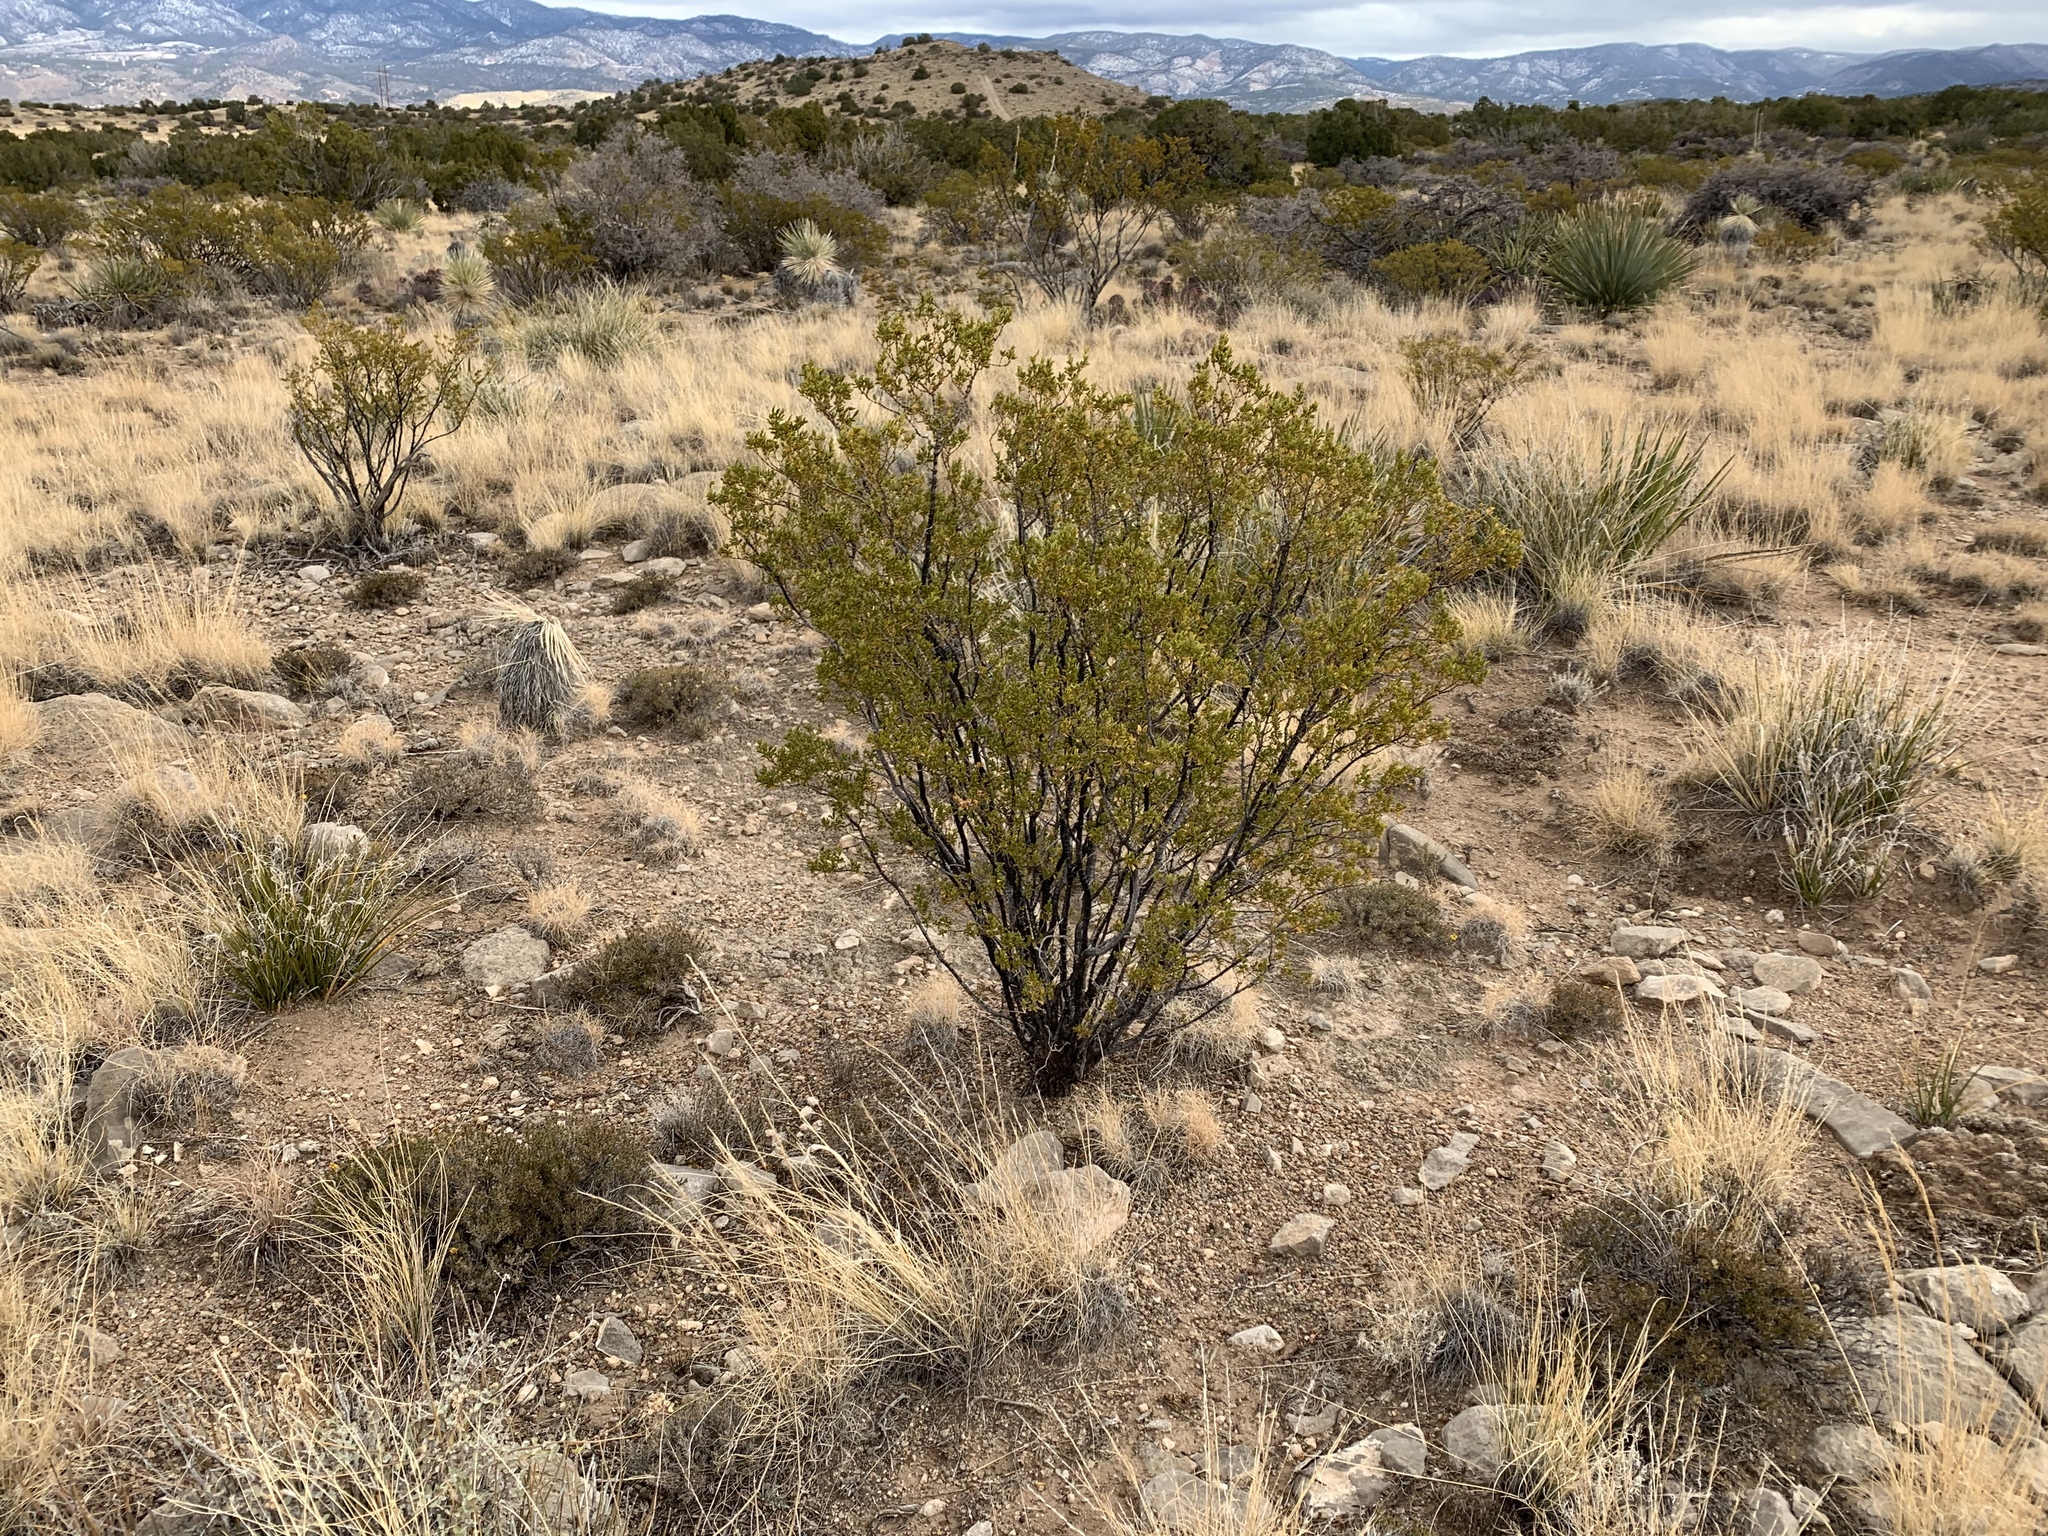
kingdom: Plantae
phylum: Tracheophyta
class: Magnoliopsida
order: Zygophyllales
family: Zygophyllaceae
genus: Larrea
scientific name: Larrea tridentata
